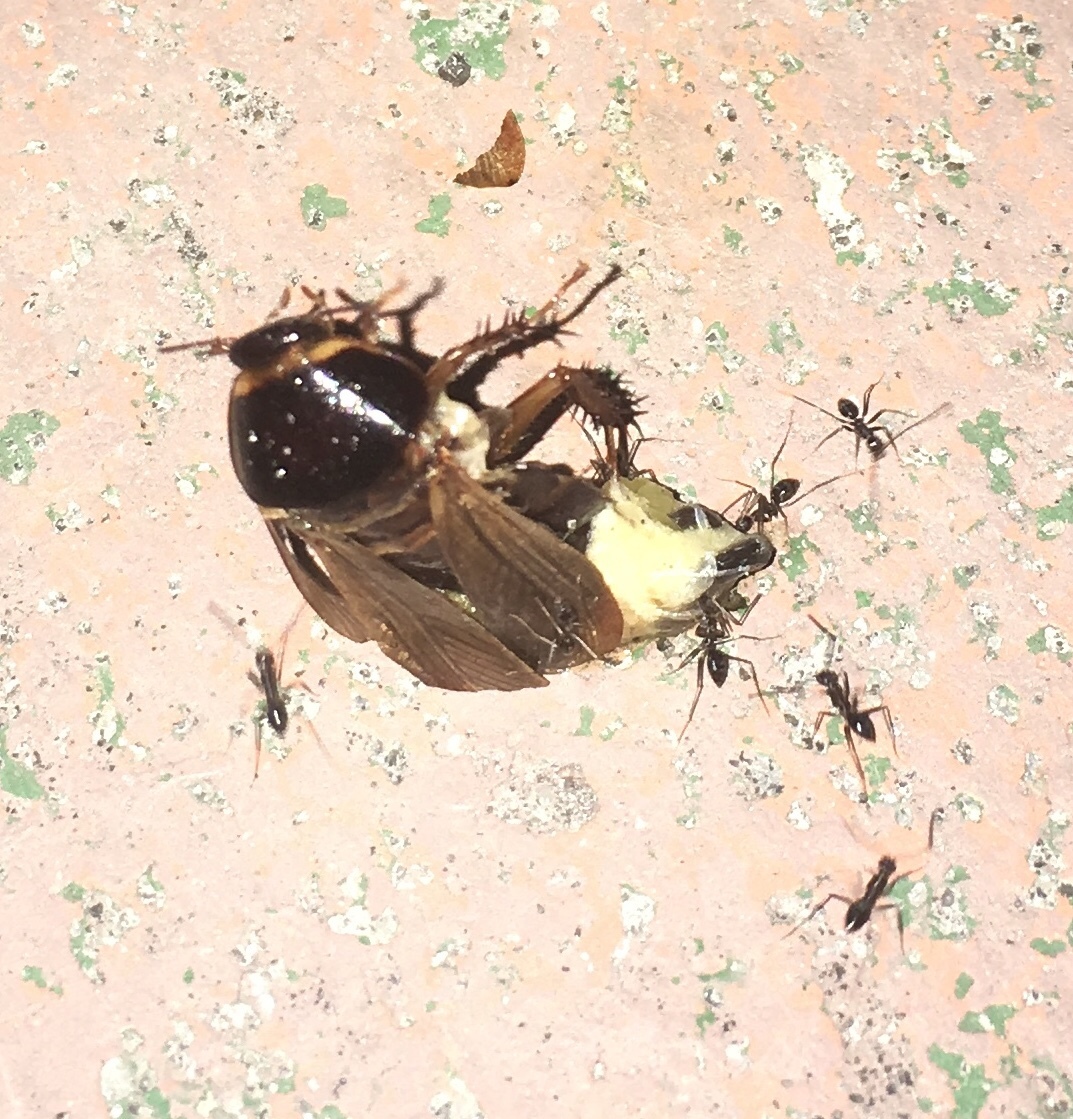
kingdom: Animalia
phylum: Arthropoda
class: Insecta
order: Blattodea
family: Blaberidae
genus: Pycnoscelus
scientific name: Pycnoscelus surinamensis
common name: Surinam cockroach
